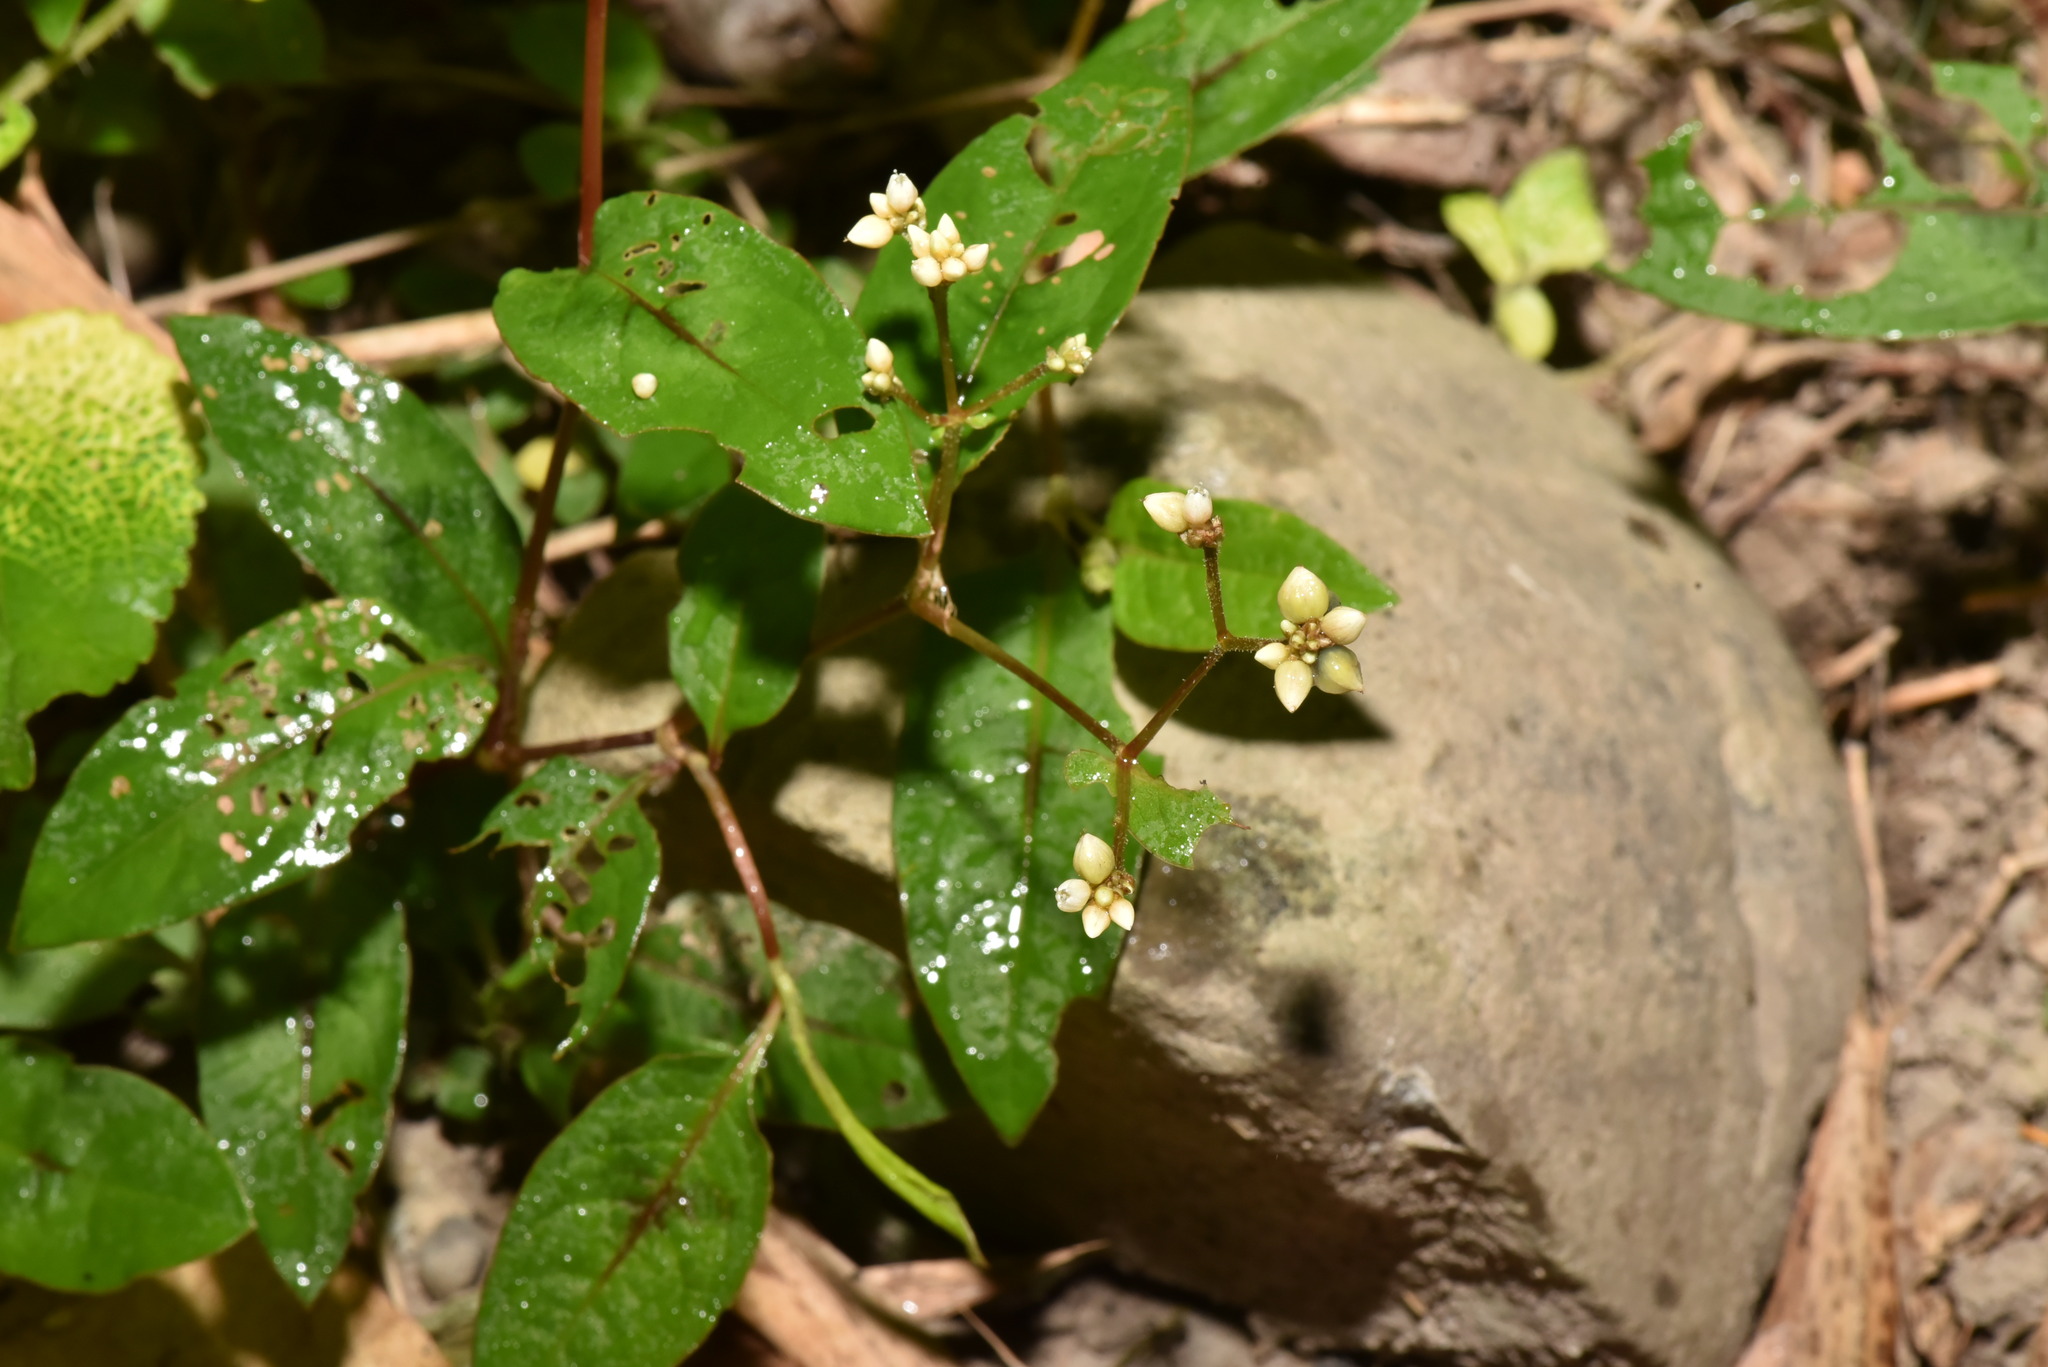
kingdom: Plantae
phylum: Tracheophyta
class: Magnoliopsida
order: Caryophyllales
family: Polygonaceae
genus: Persicaria
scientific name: Persicaria chinensis
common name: Chinese knotweed
